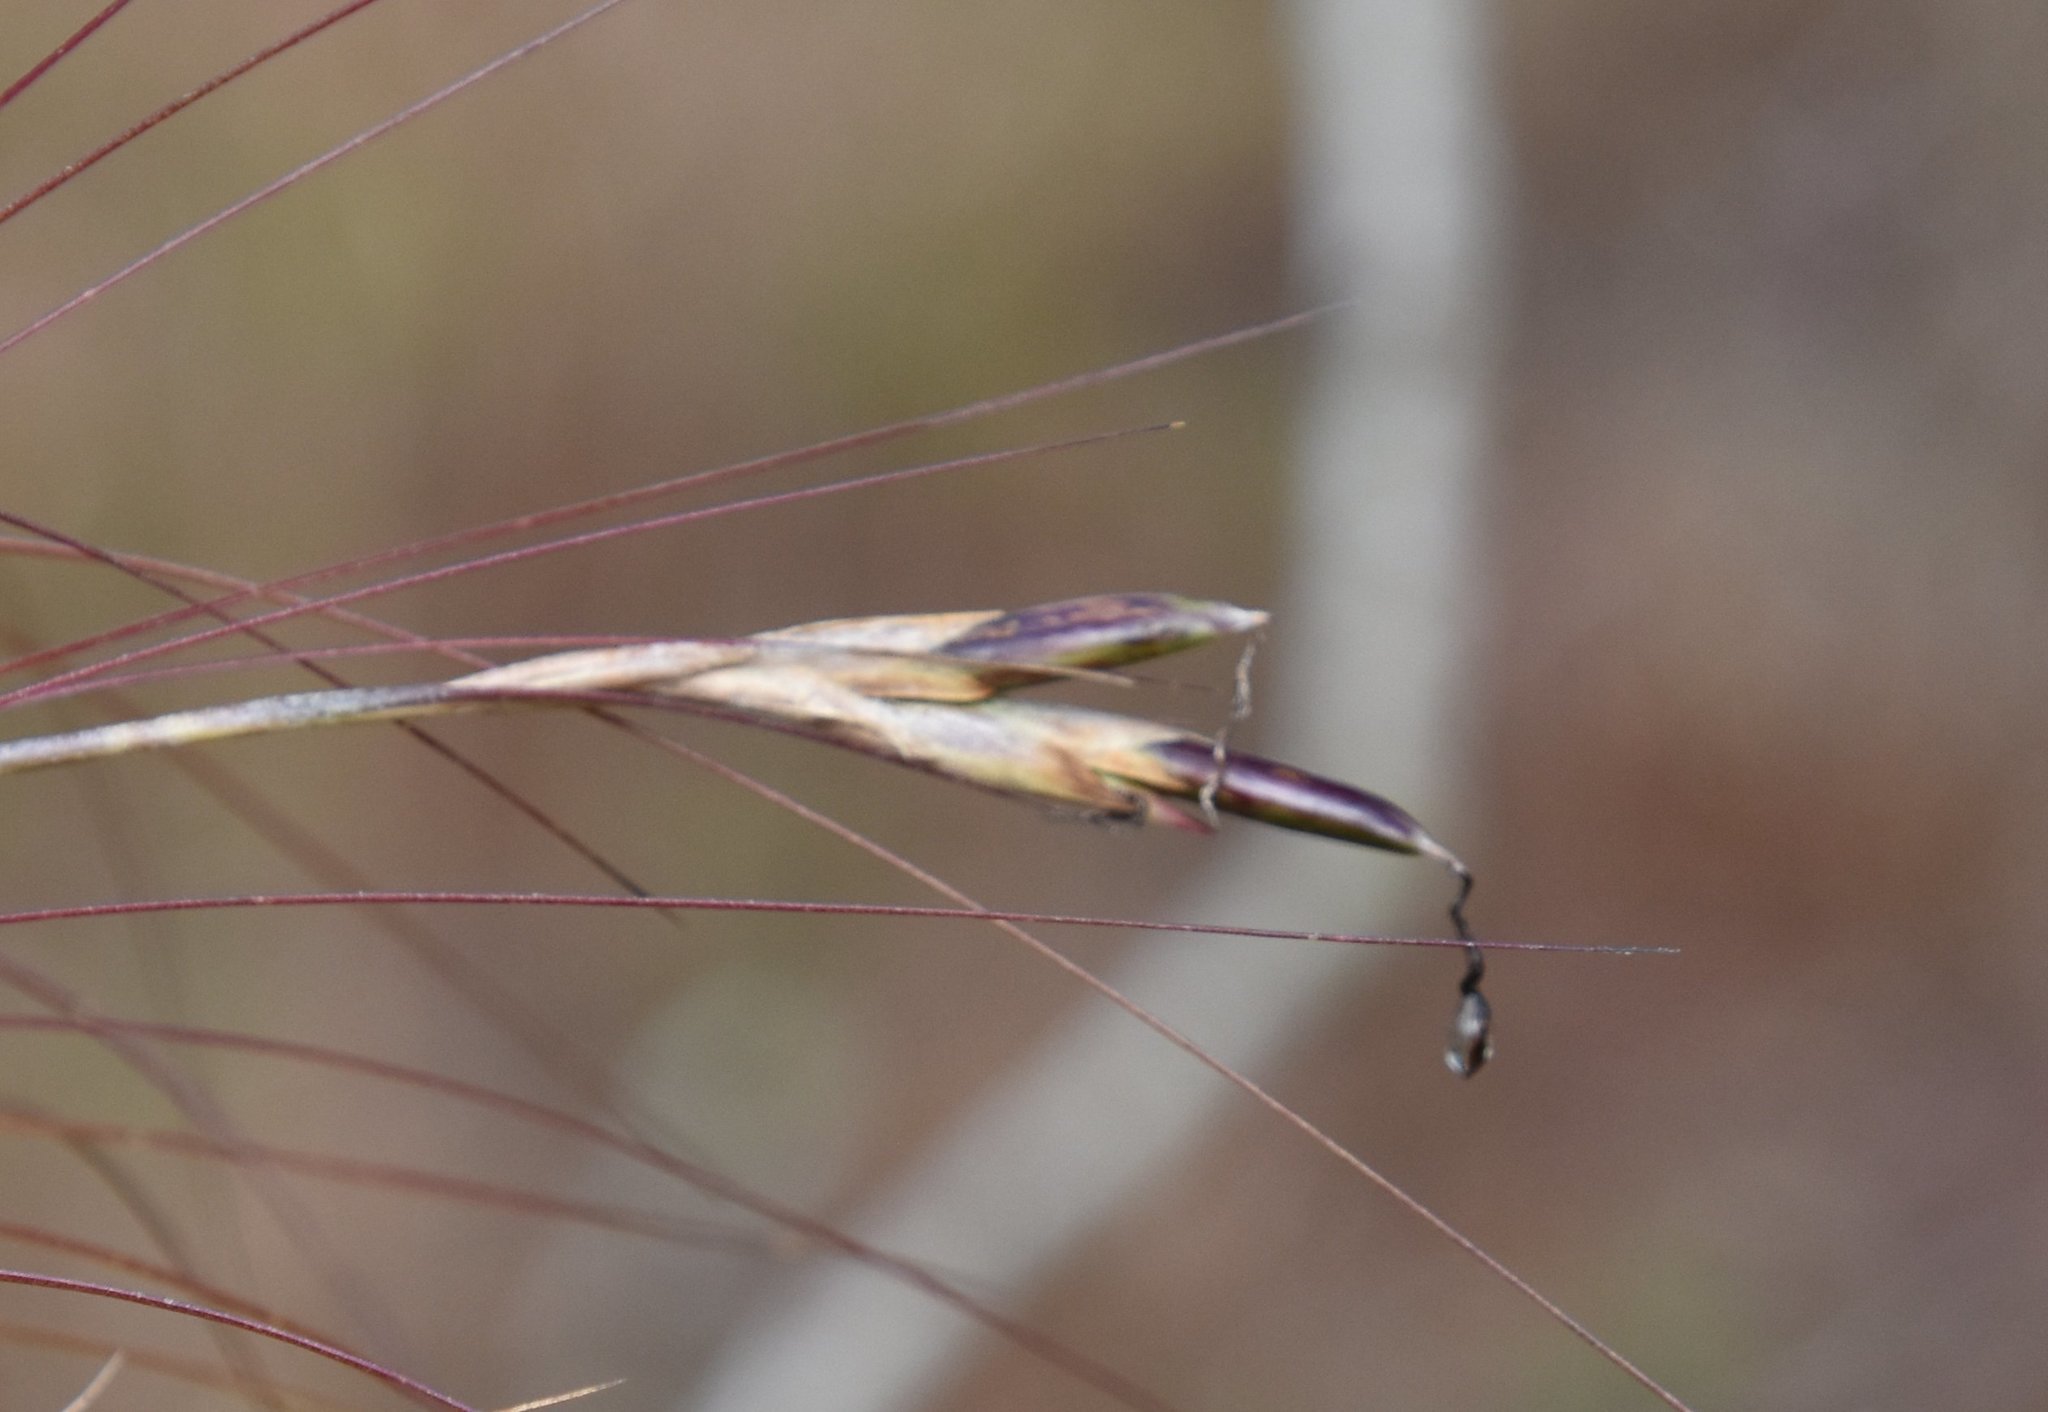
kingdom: Plantae
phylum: Tracheophyta
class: Liliopsida
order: Poales
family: Bromeliaceae
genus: Tillandsia
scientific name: Tillandsia setacea
